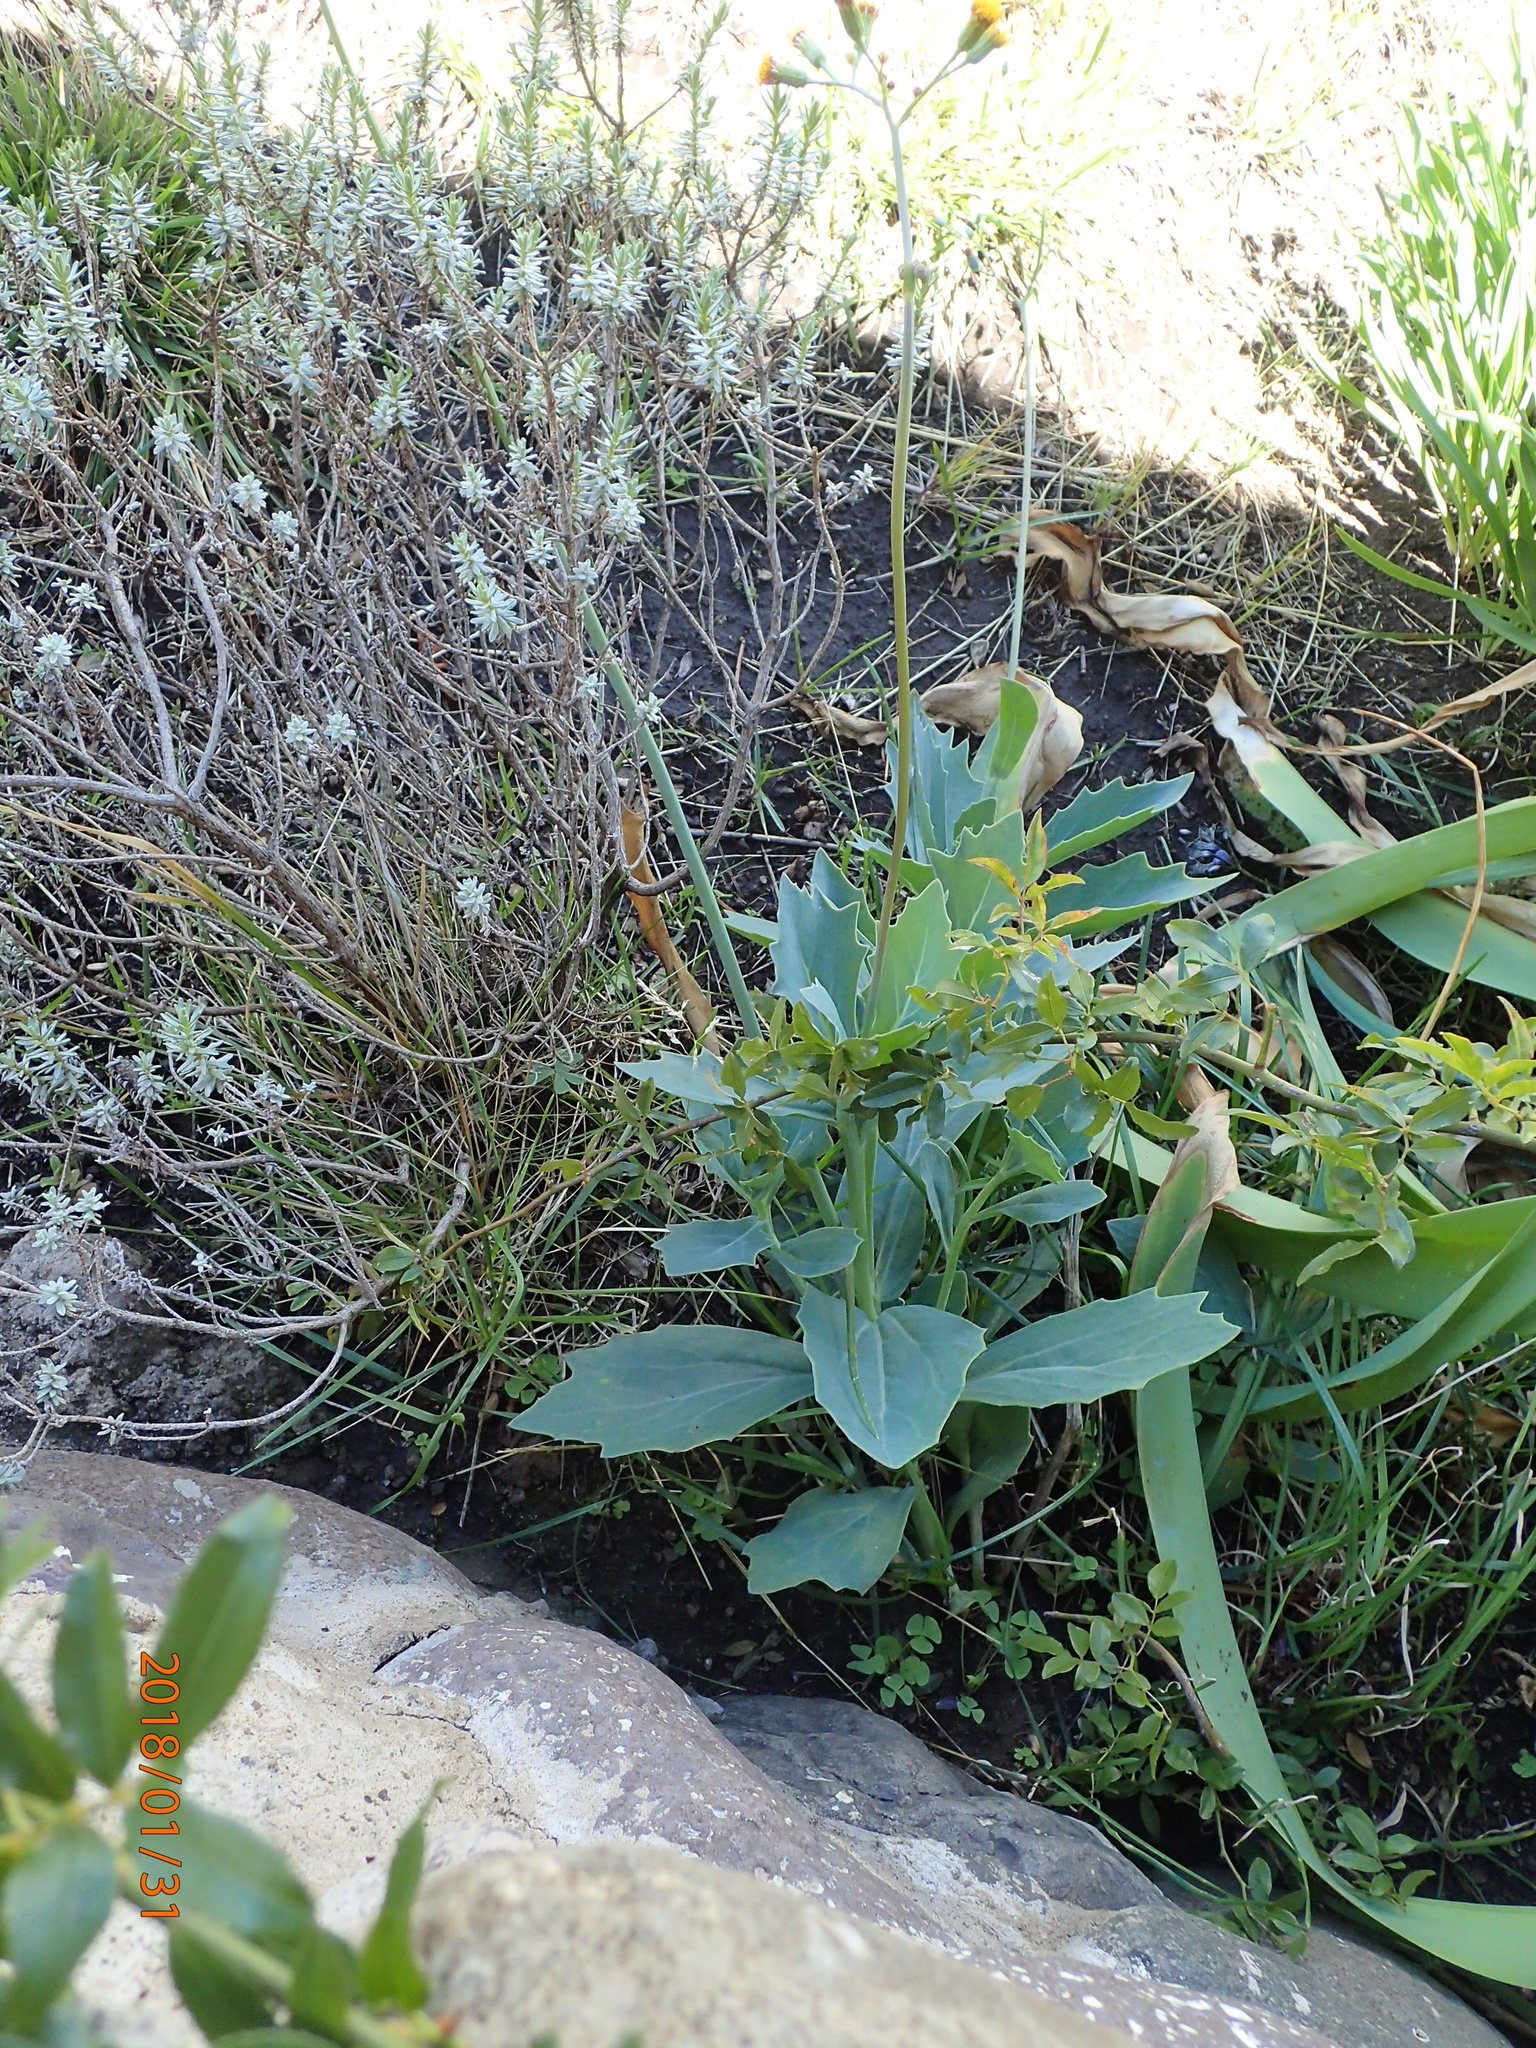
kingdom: Plantae
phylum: Tracheophyta
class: Magnoliopsida
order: Asterales
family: Asteraceae
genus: Senecio
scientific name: Senecio rhomboideus
